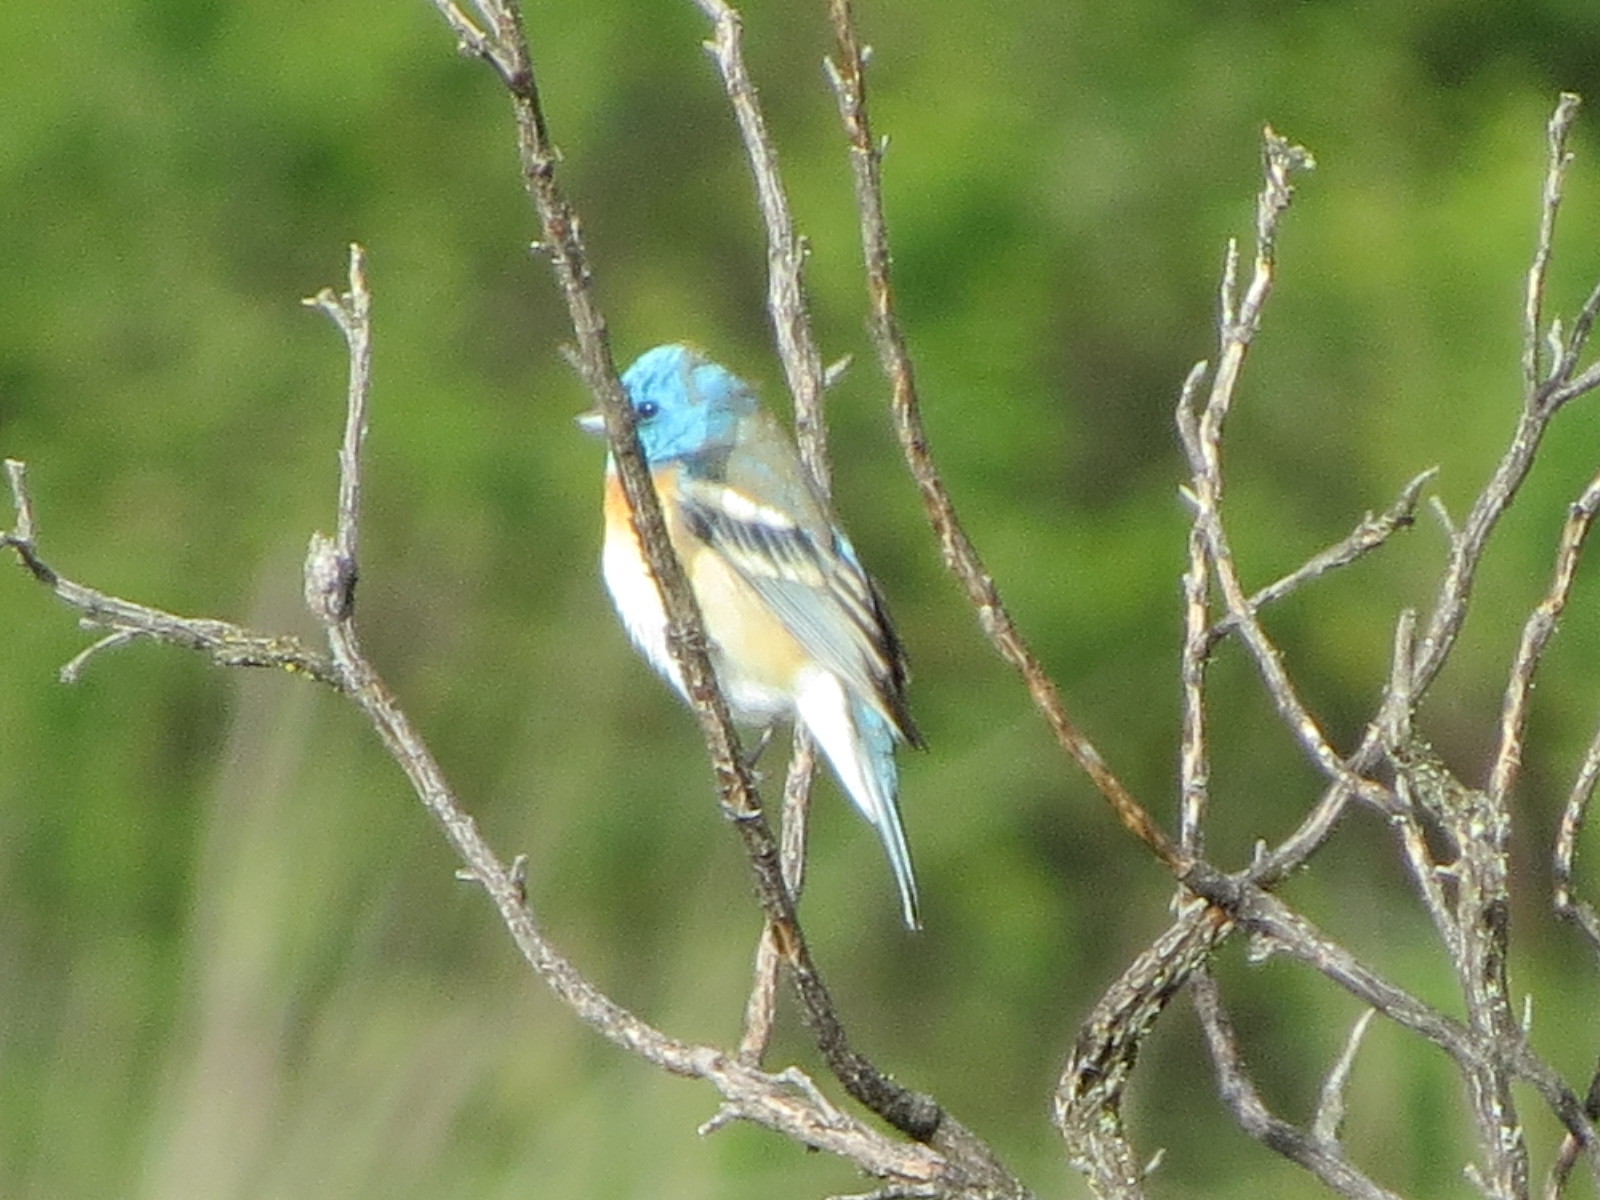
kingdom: Animalia
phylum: Chordata
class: Aves
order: Passeriformes
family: Cardinalidae
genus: Passerina
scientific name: Passerina amoena
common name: Lazuli bunting
